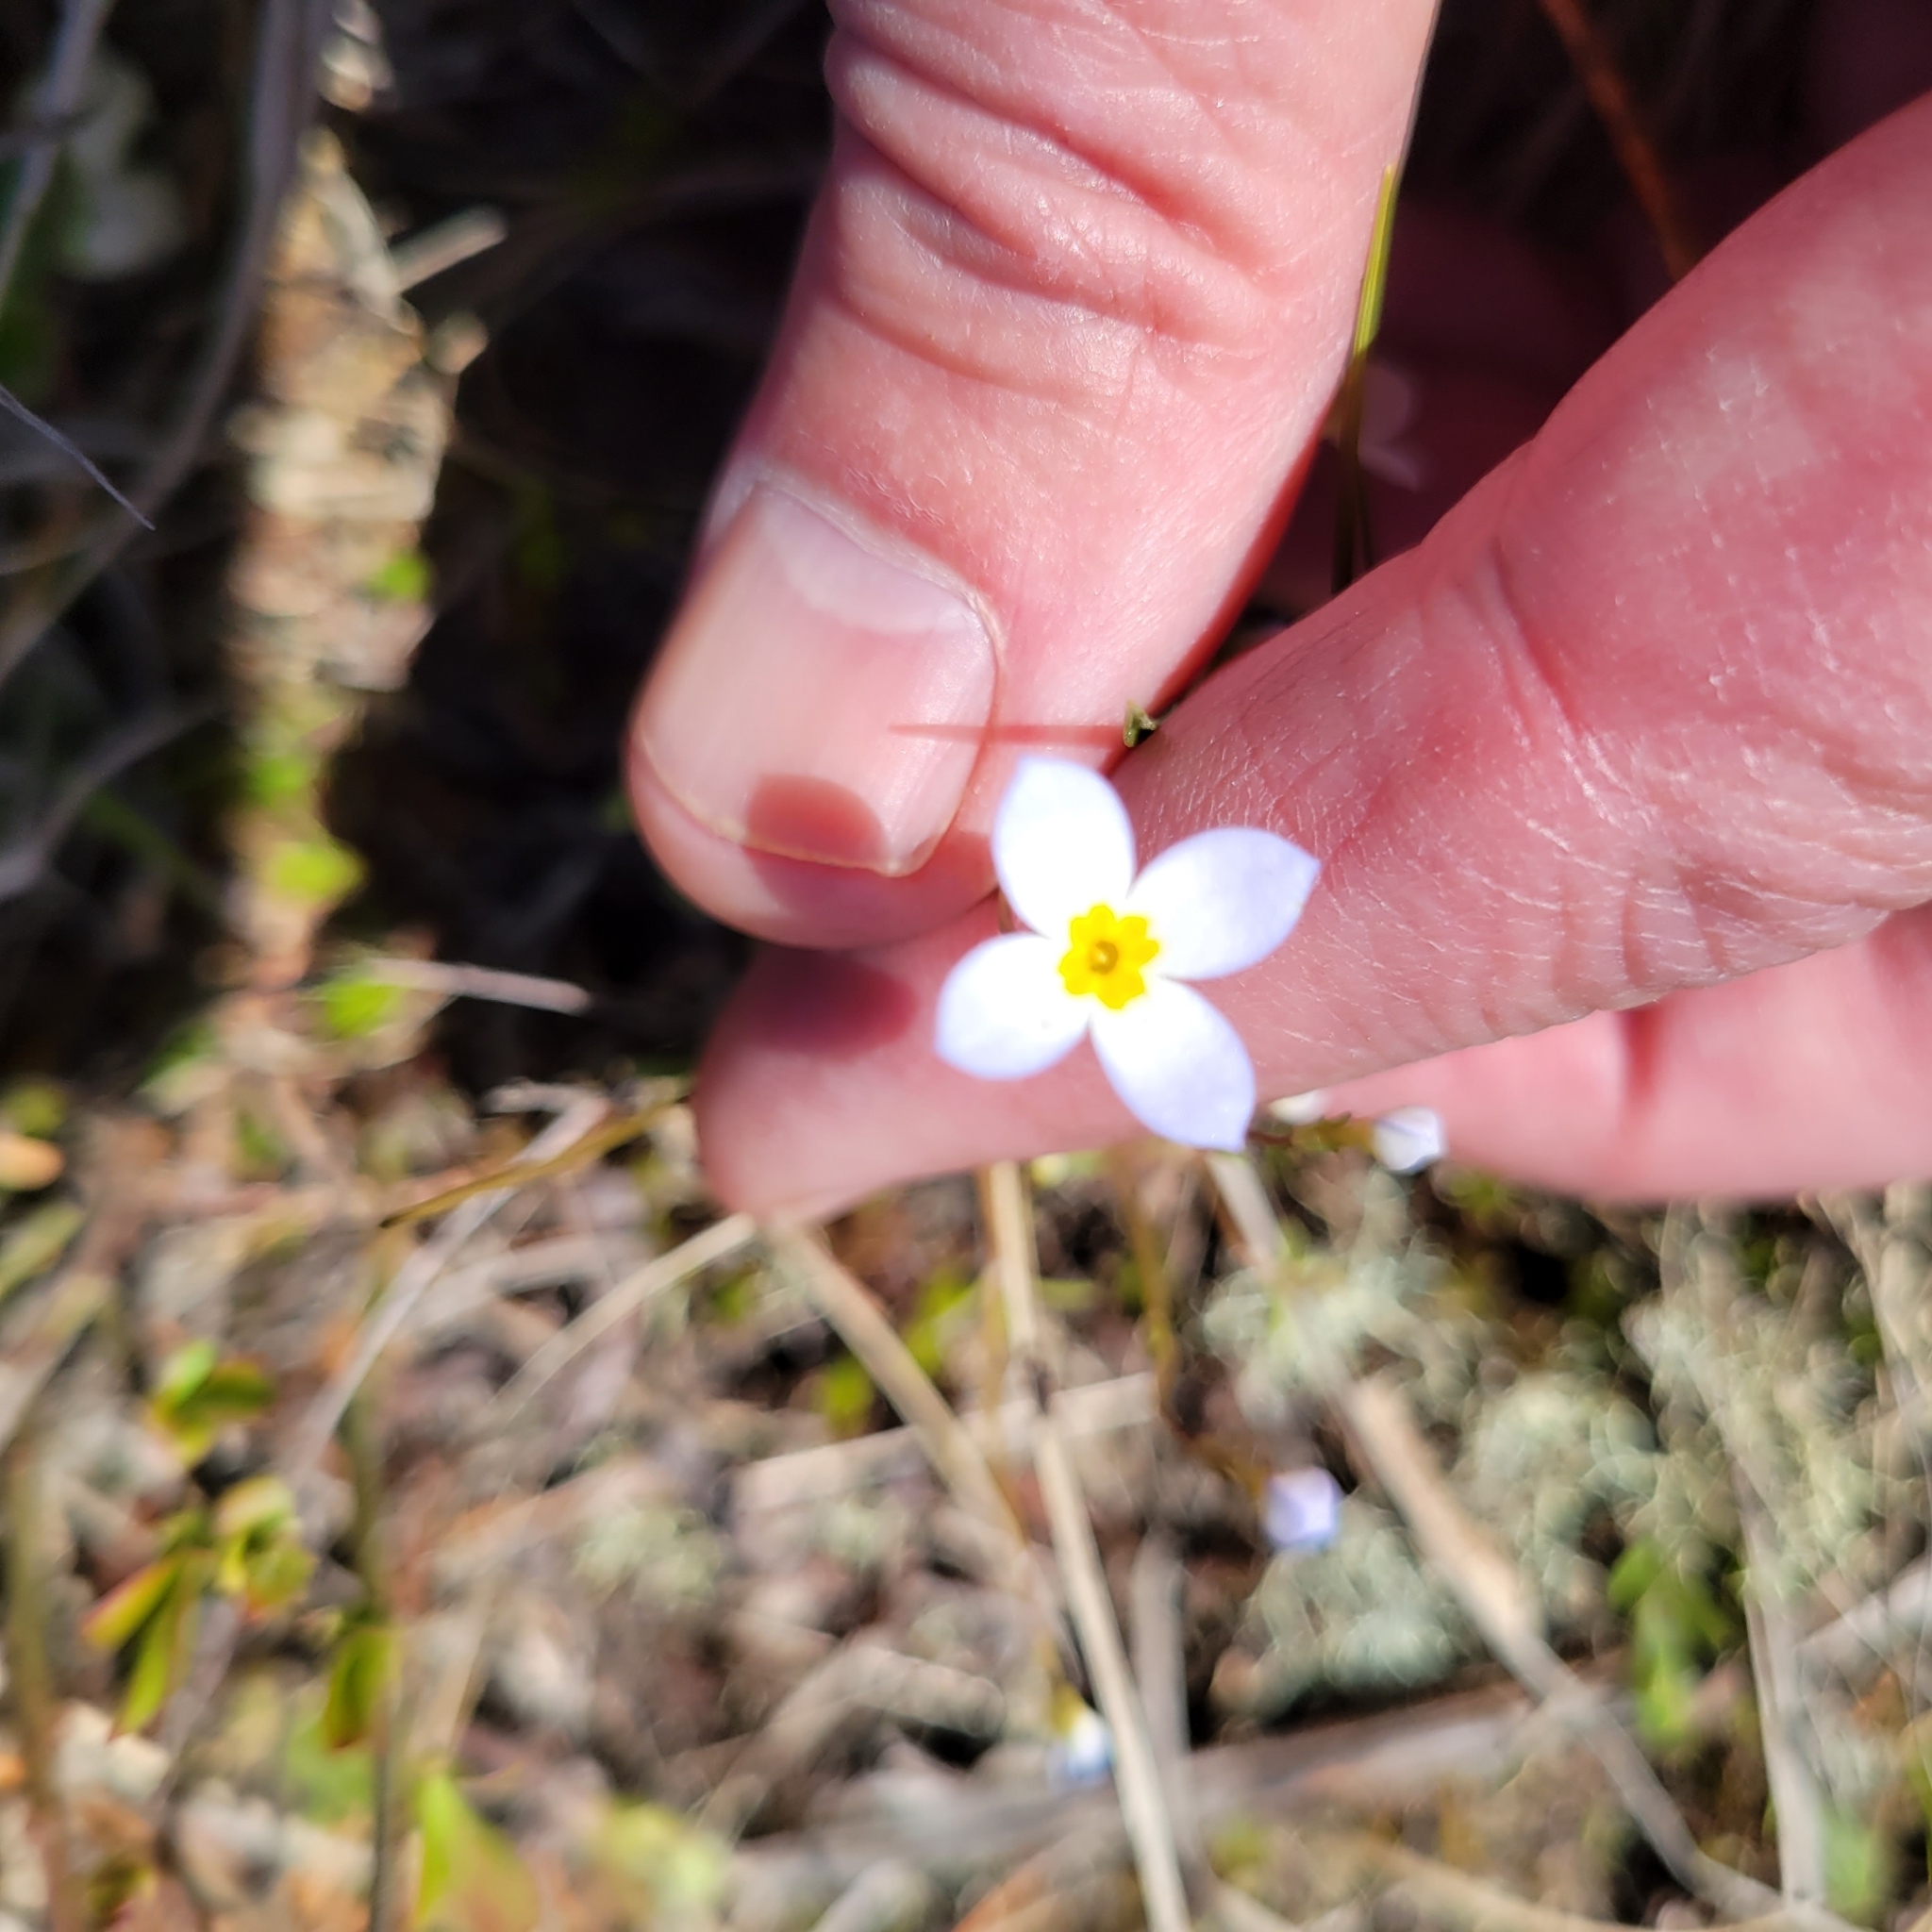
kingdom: Plantae
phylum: Tracheophyta
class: Magnoliopsida
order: Gentianales
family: Rubiaceae
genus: Houstonia
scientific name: Houstonia caerulea
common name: Bluets
